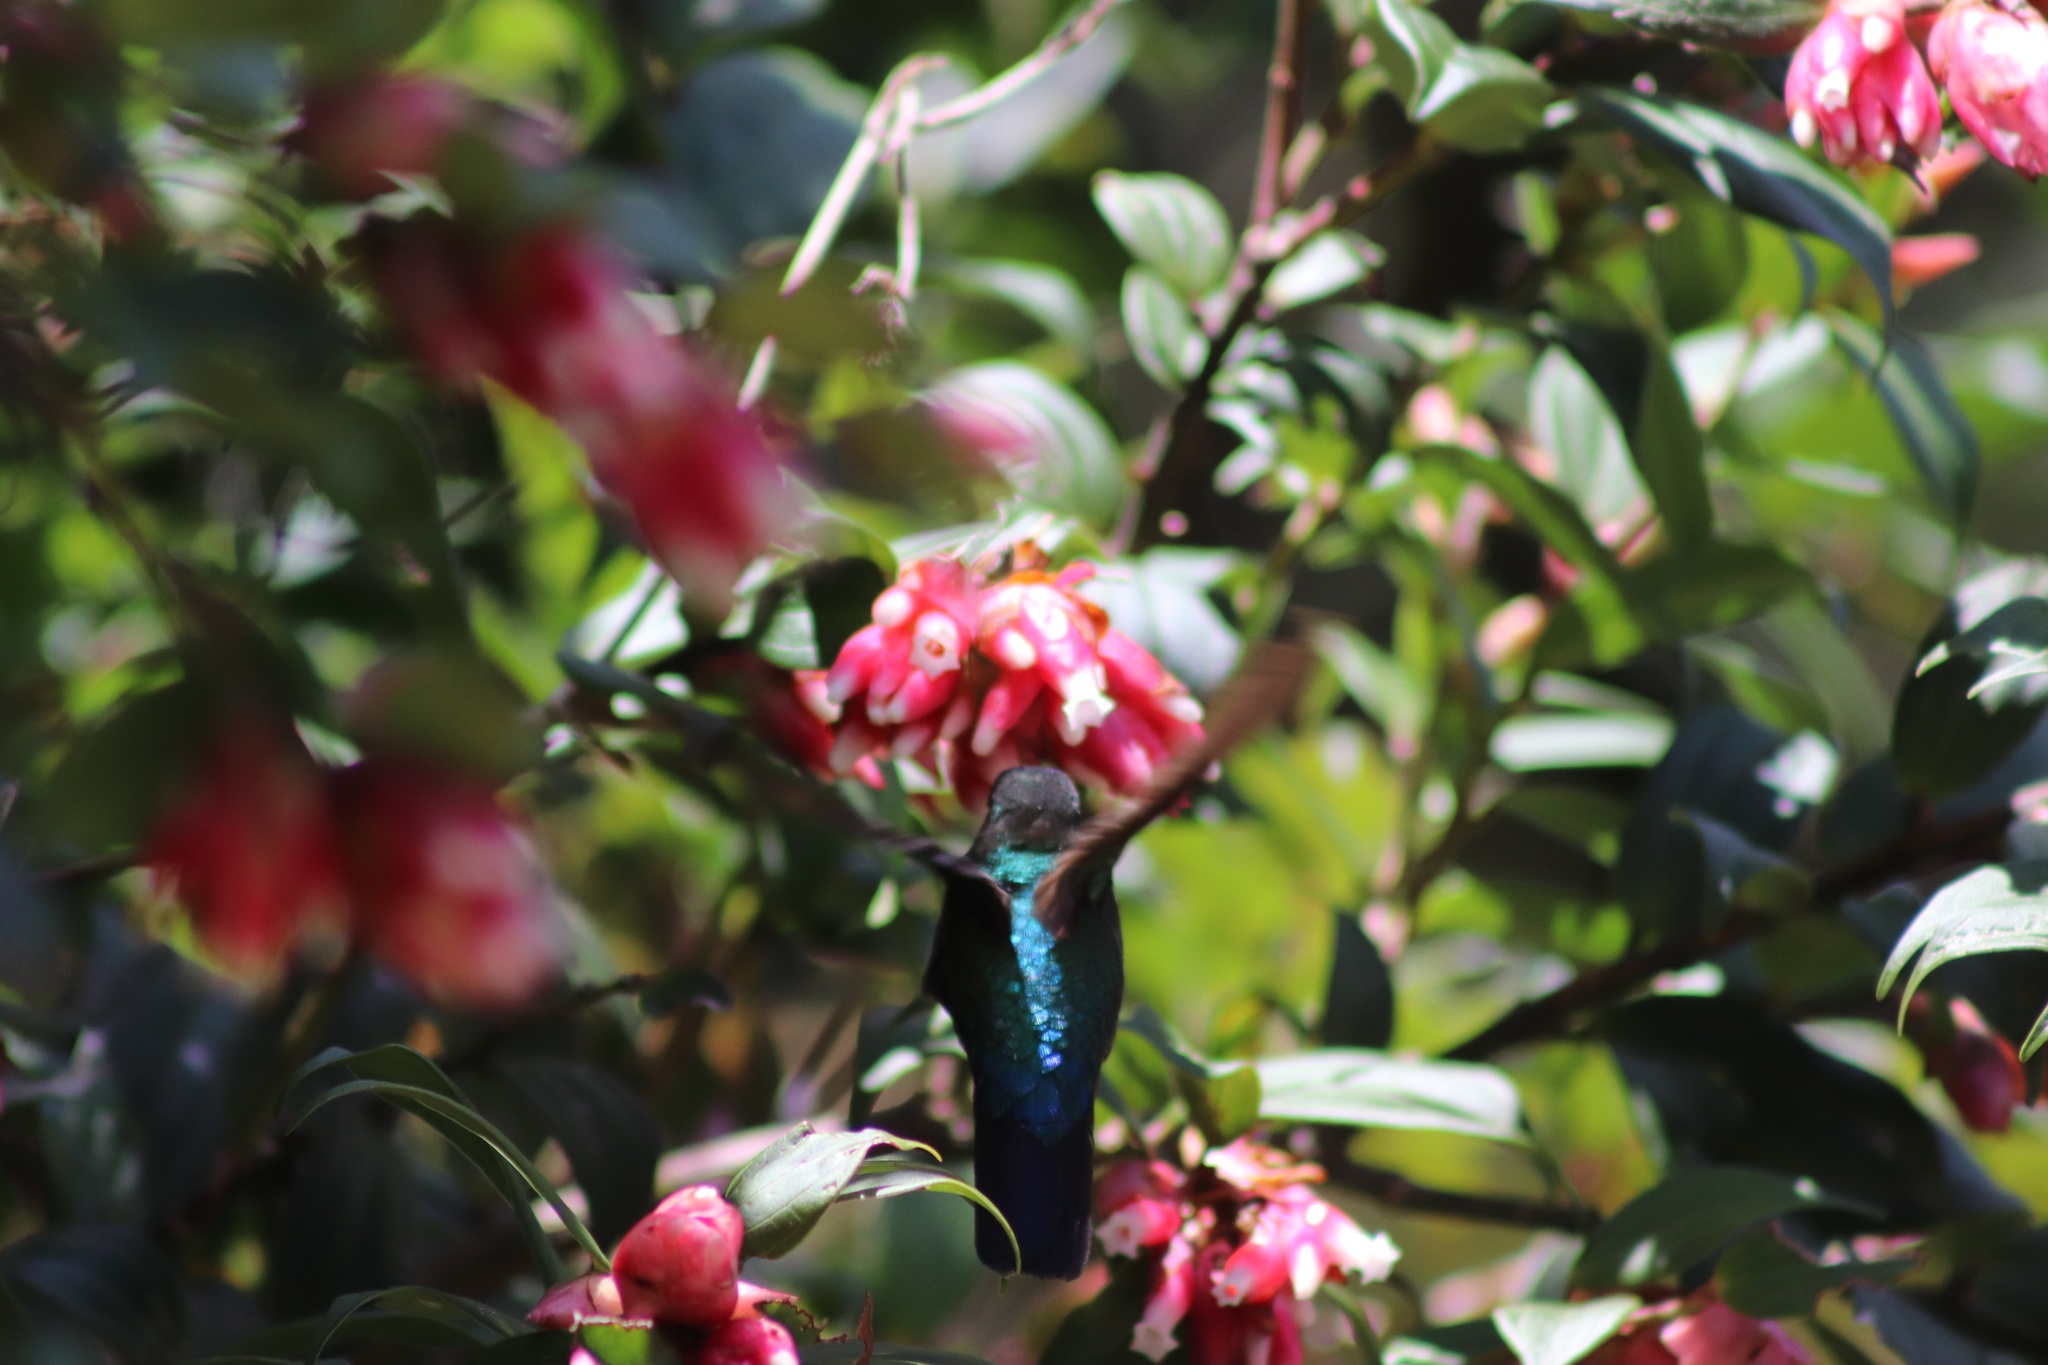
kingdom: Animalia
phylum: Chordata
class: Aves
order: Apodiformes
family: Trochilidae
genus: Panterpe
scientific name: Panterpe insignis
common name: Fiery-throated hummingbird
